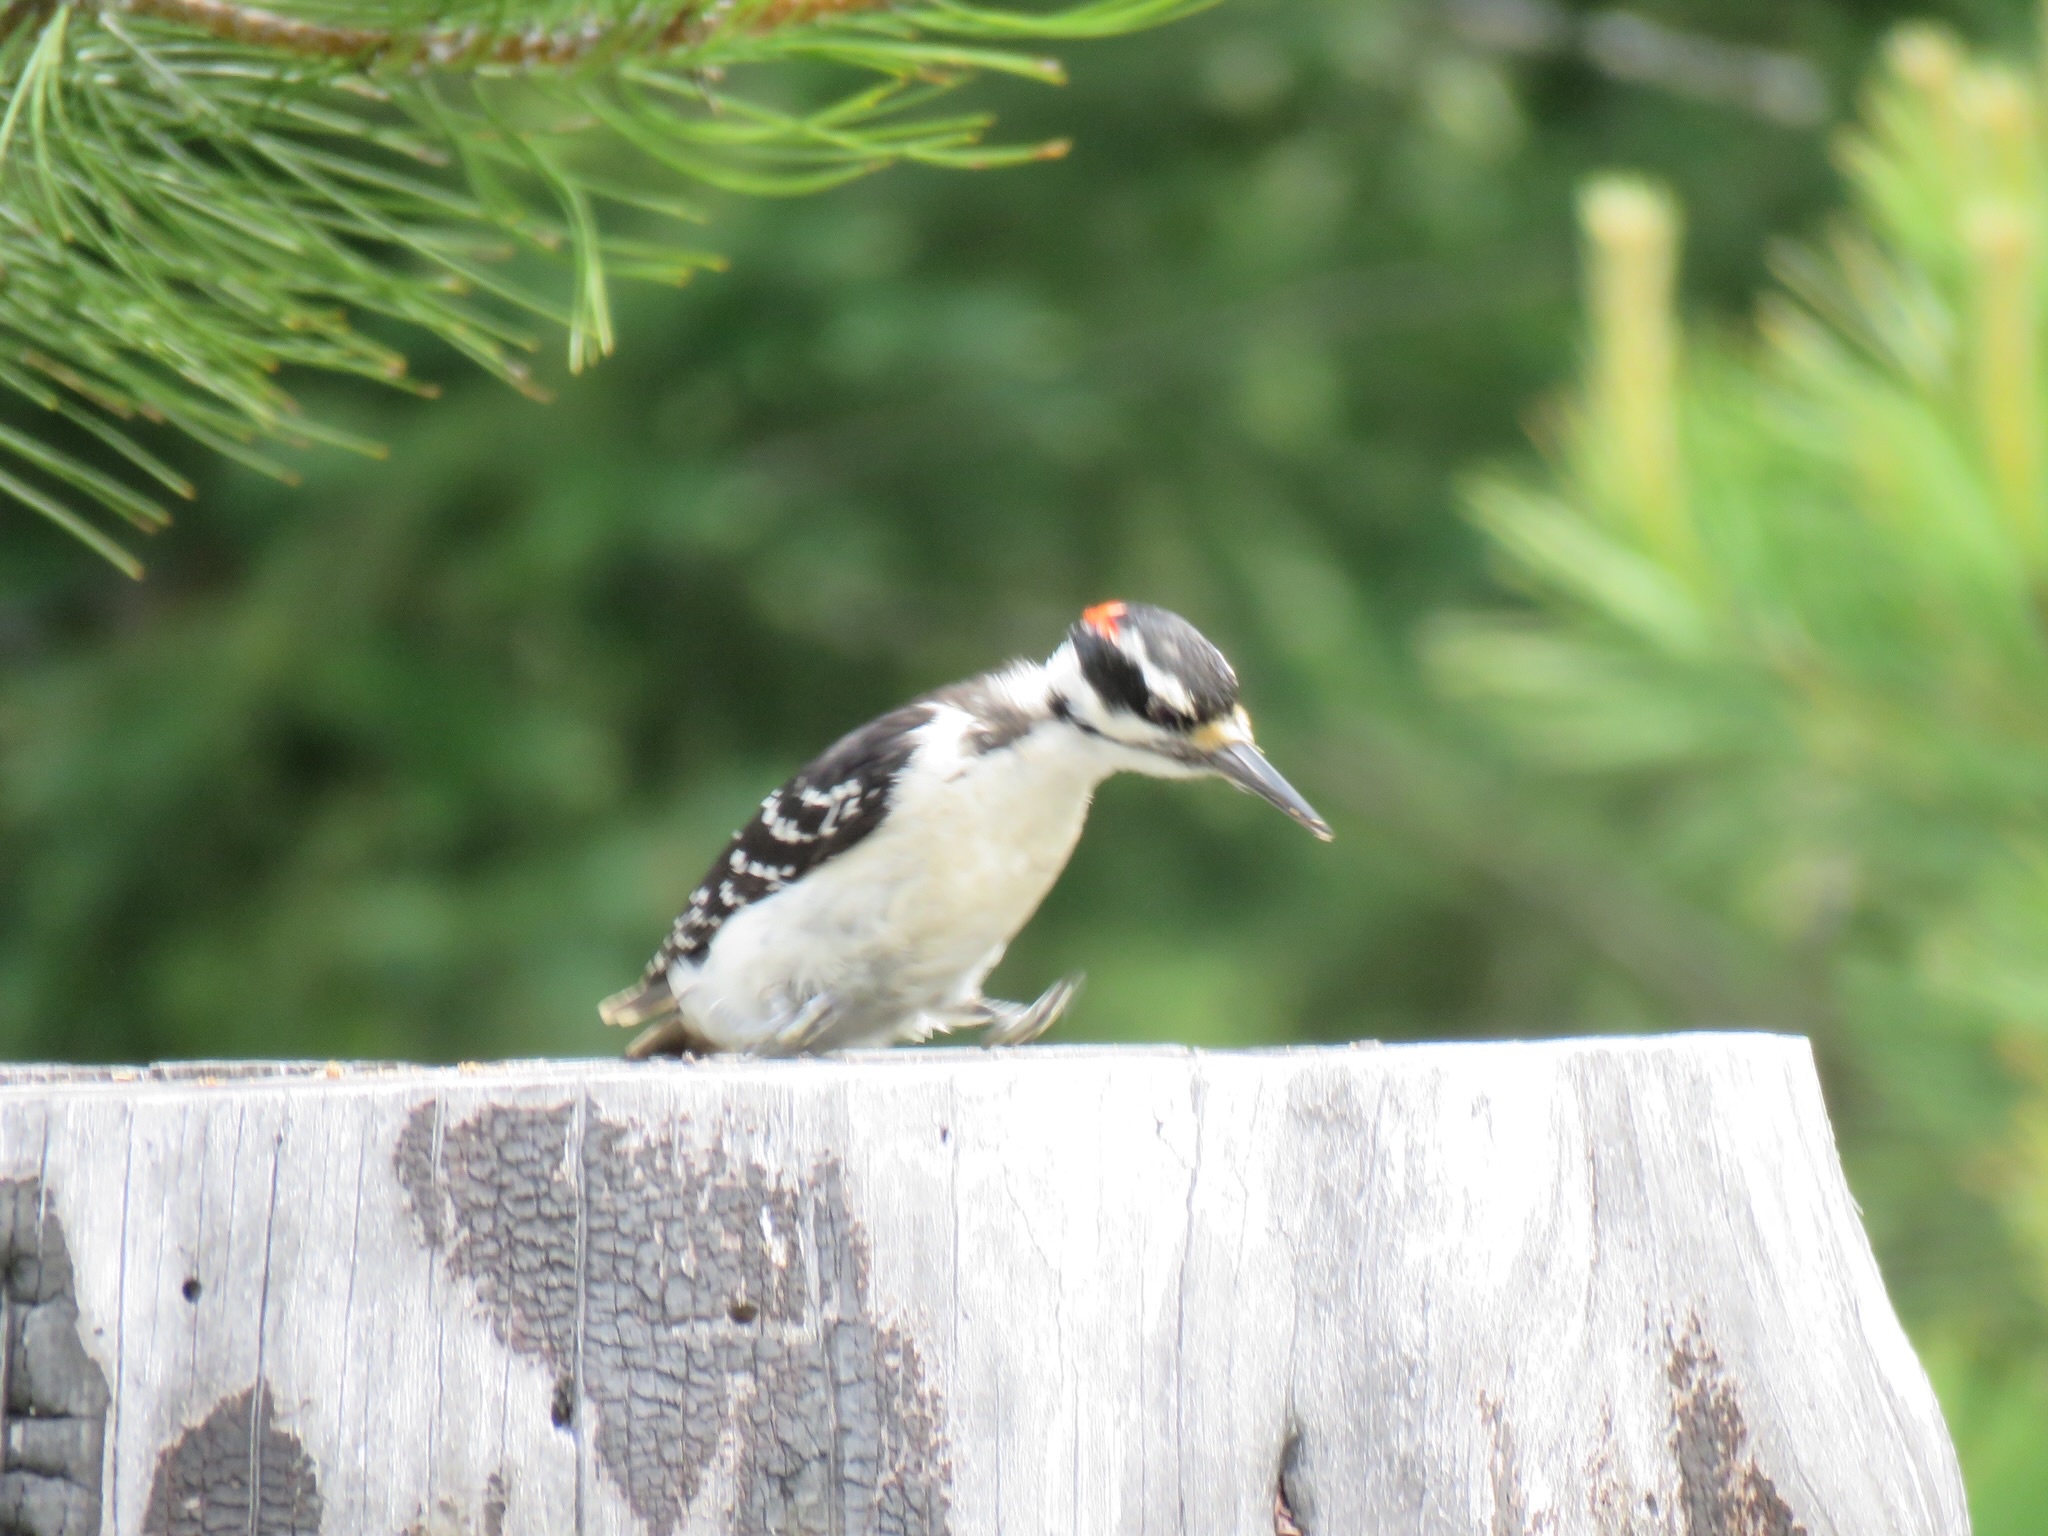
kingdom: Animalia
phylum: Chordata
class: Aves
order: Piciformes
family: Picidae
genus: Leuconotopicus
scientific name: Leuconotopicus villosus
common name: Hairy woodpecker
